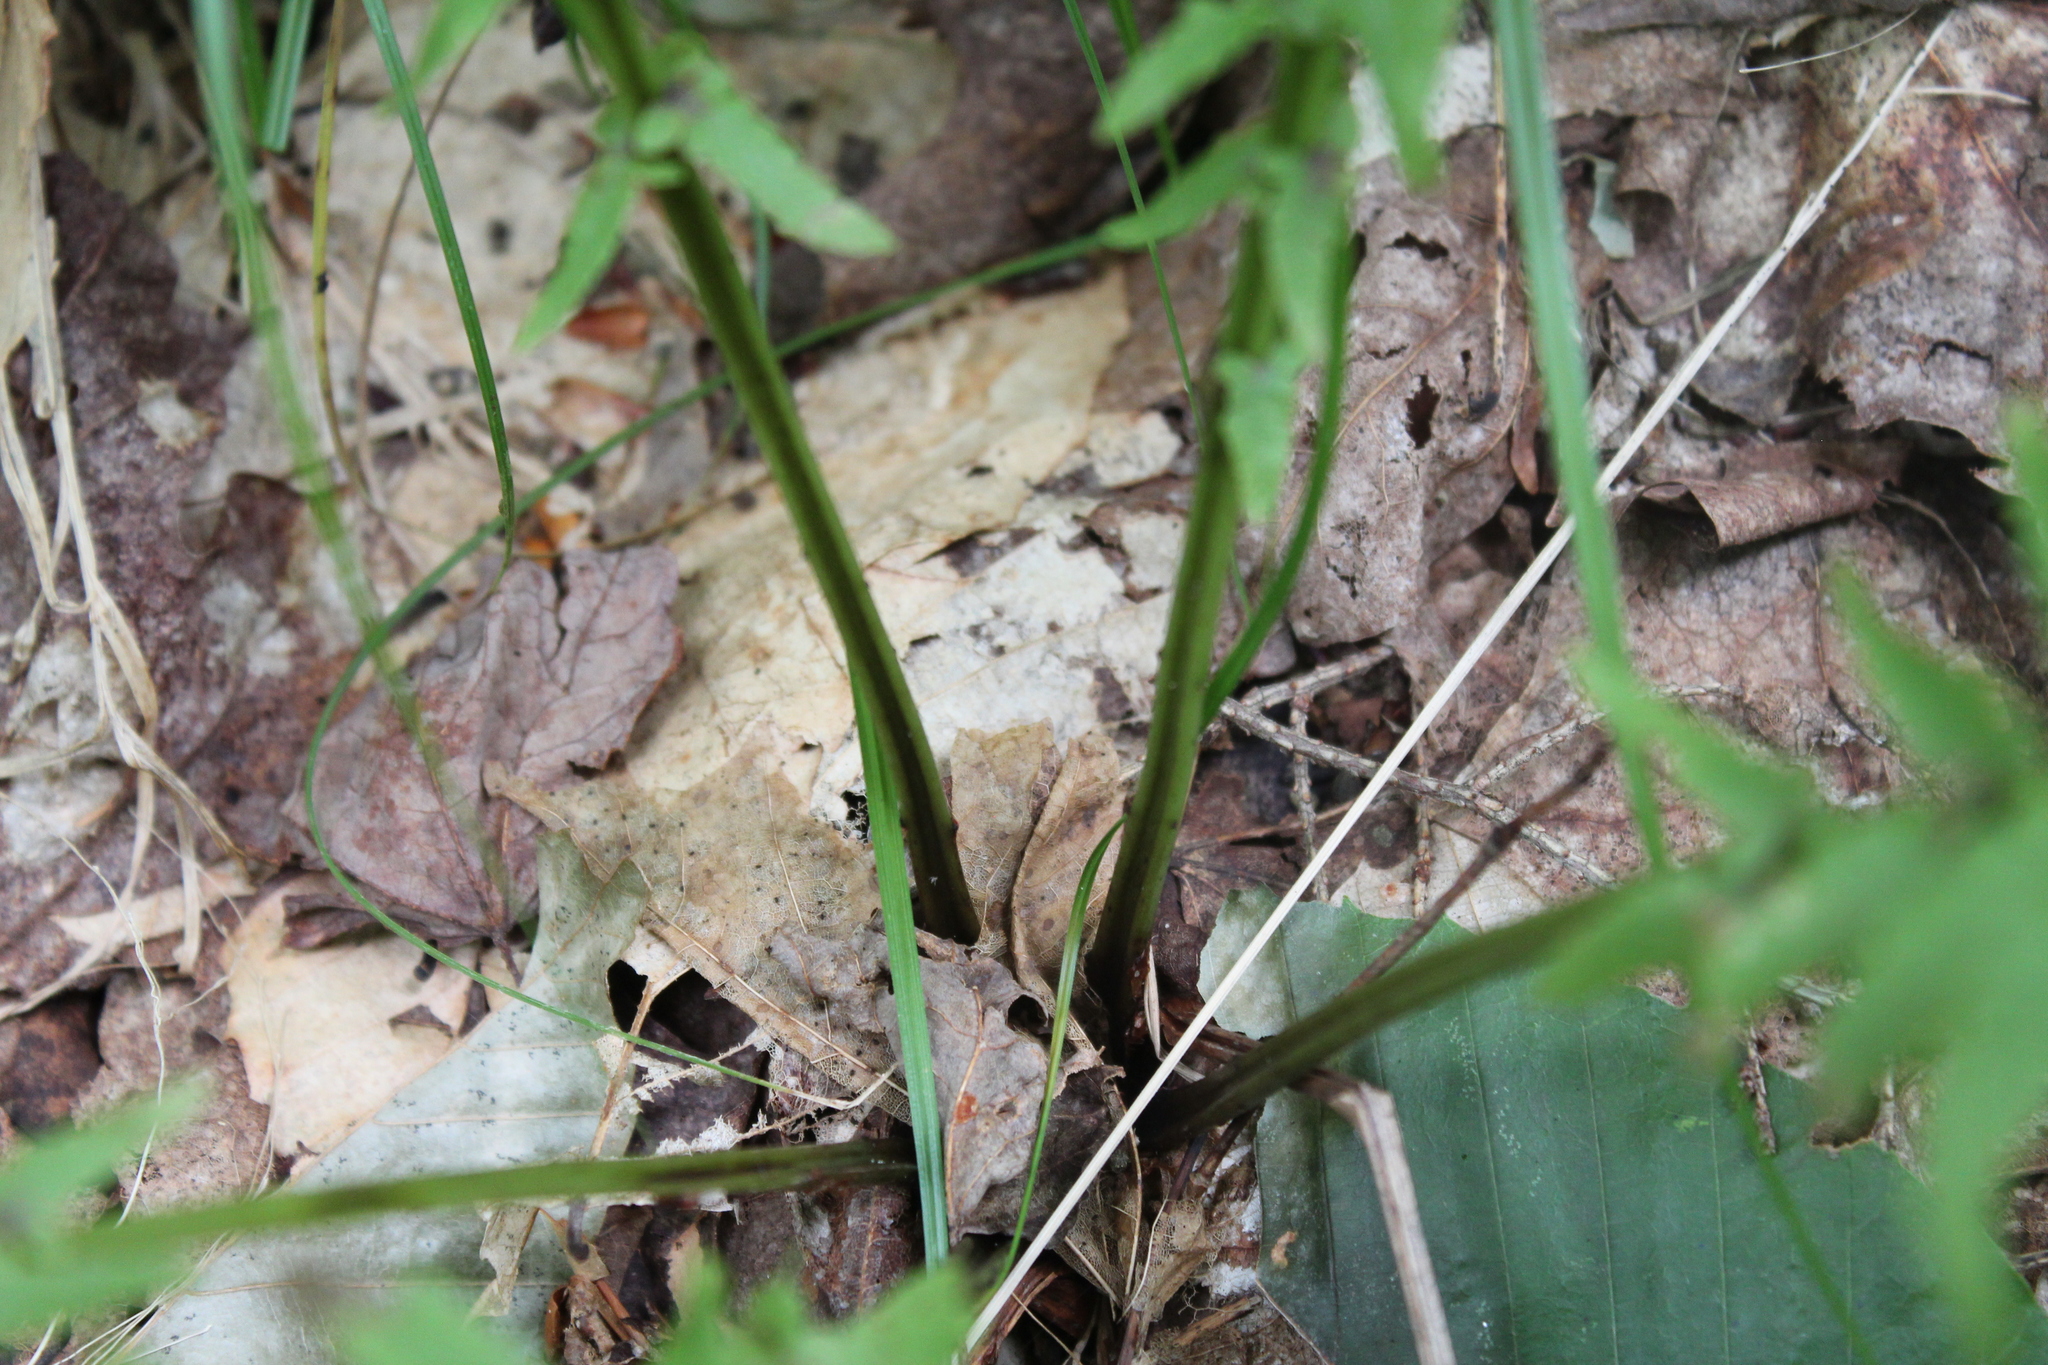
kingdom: Plantae
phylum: Tracheophyta
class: Polypodiopsida
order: Polypodiales
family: Onocleaceae
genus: Matteuccia
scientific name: Matteuccia struthiopteris
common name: Ostrich fern
